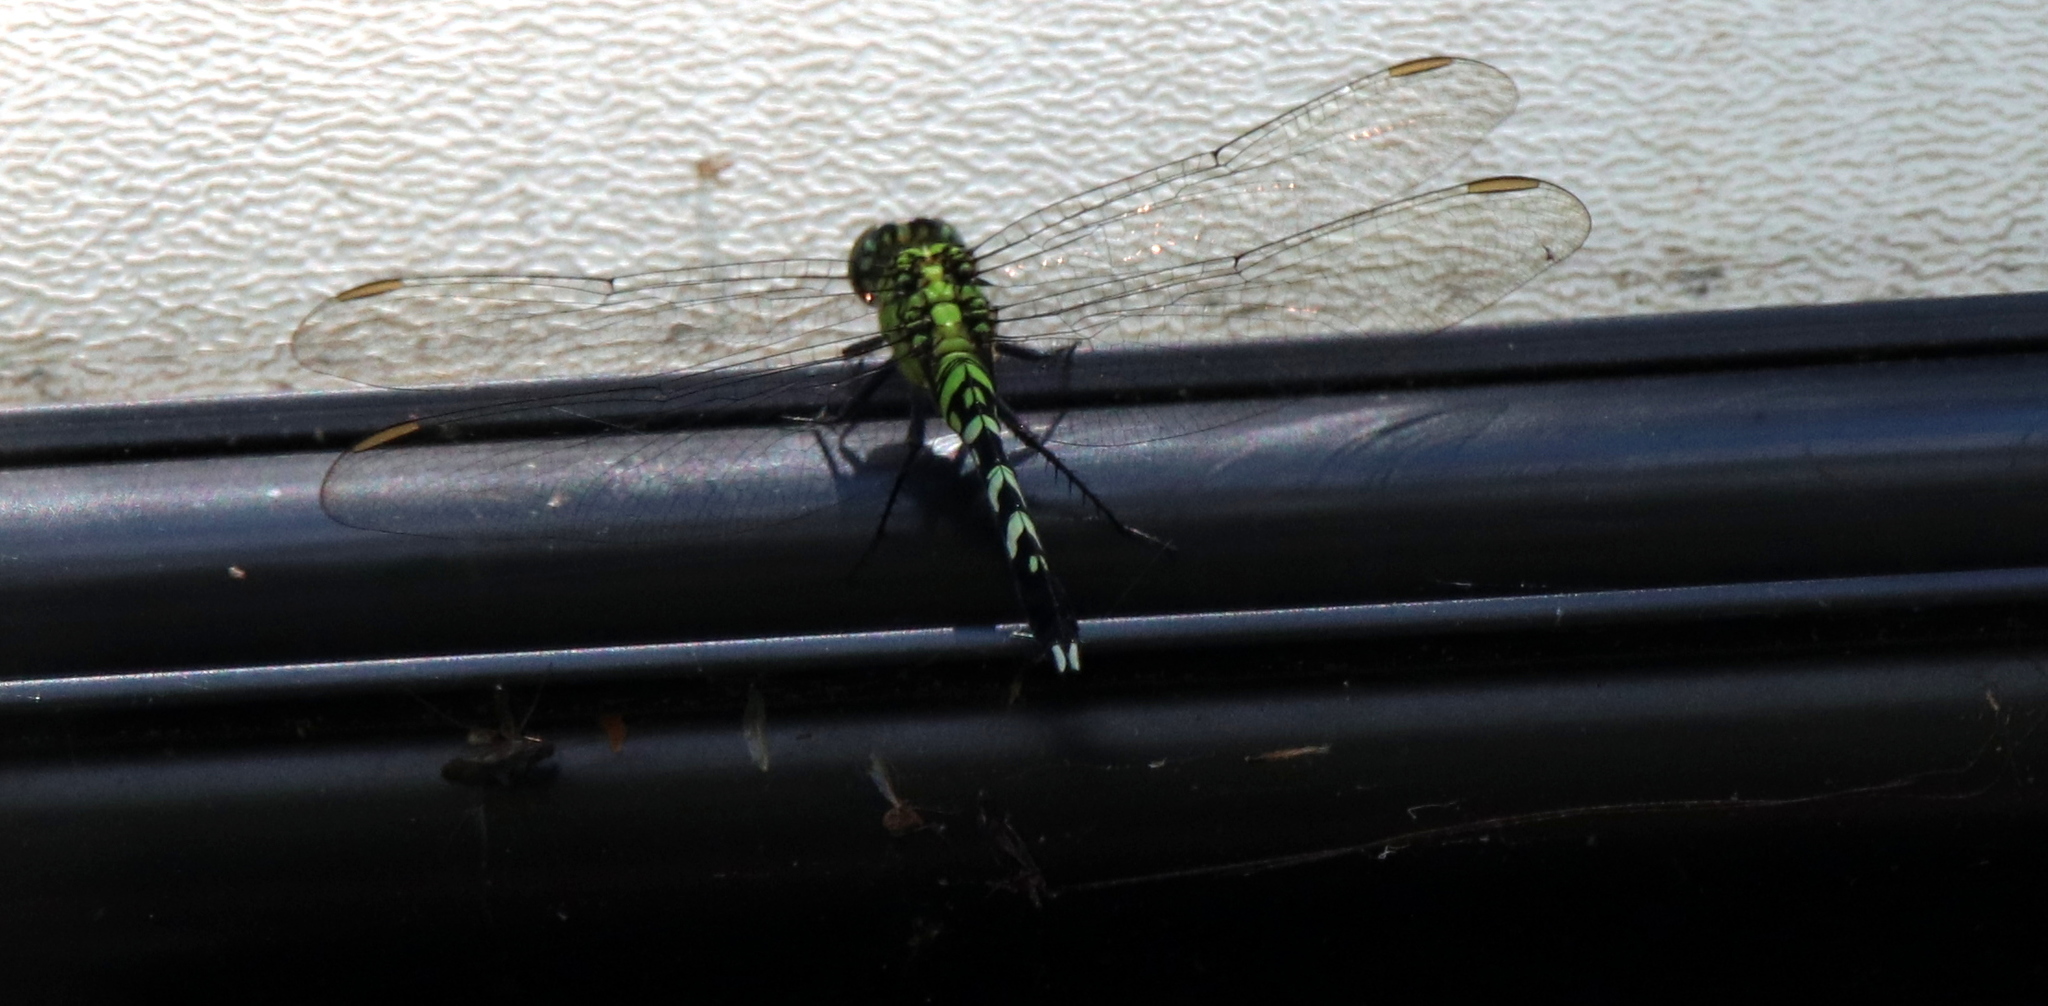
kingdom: Animalia
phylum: Arthropoda
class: Insecta
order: Odonata
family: Libellulidae
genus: Erythemis
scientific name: Erythemis simplicicollis
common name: Eastern pondhawk
